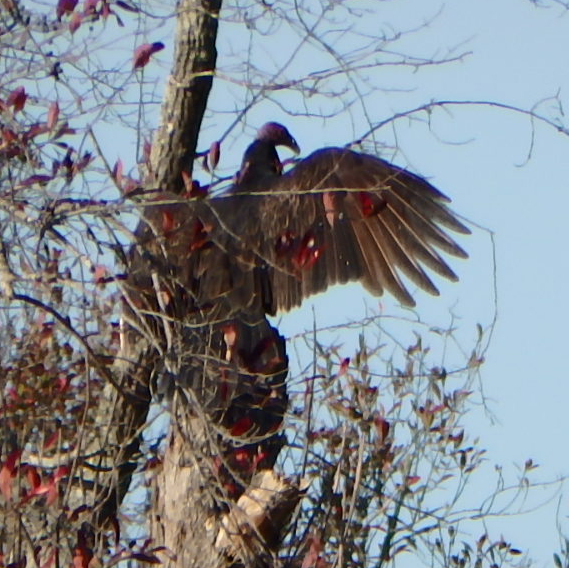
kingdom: Animalia
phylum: Chordata
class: Aves
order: Accipitriformes
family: Cathartidae
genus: Cathartes
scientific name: Cathartes aura
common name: Turkey vulture
